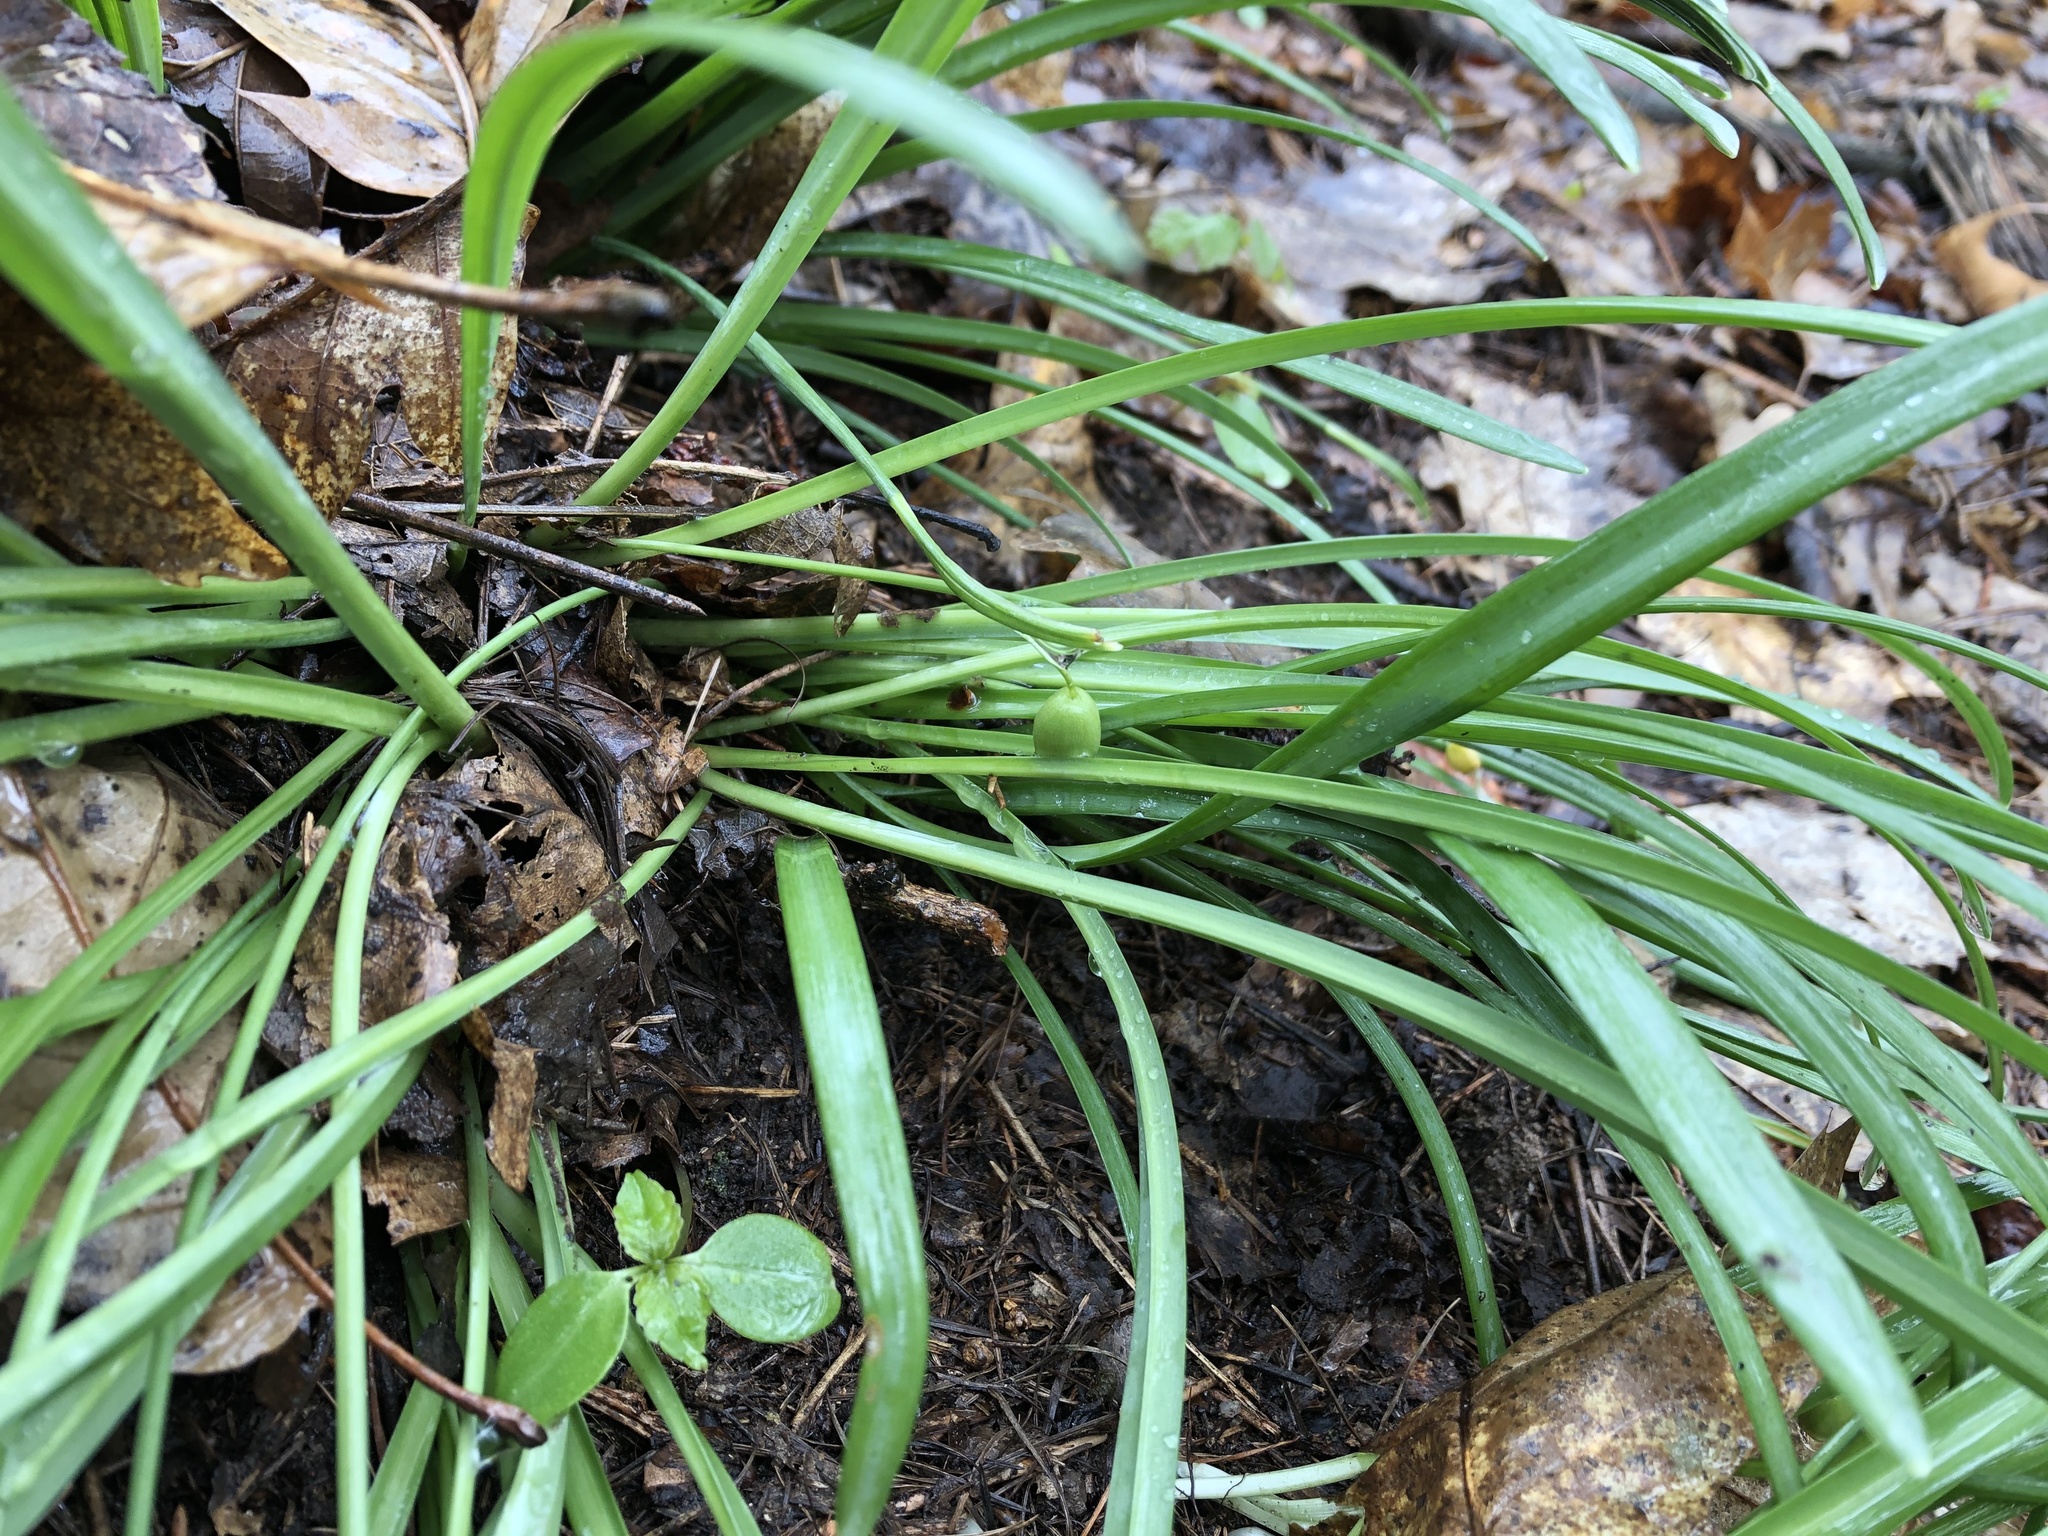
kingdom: Plantae
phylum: Tracheophyta
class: Liliopsida
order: Asparagales
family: Amaryllidaceae
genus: Galanthus
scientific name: Galanthus nivalis
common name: Snowdrop
